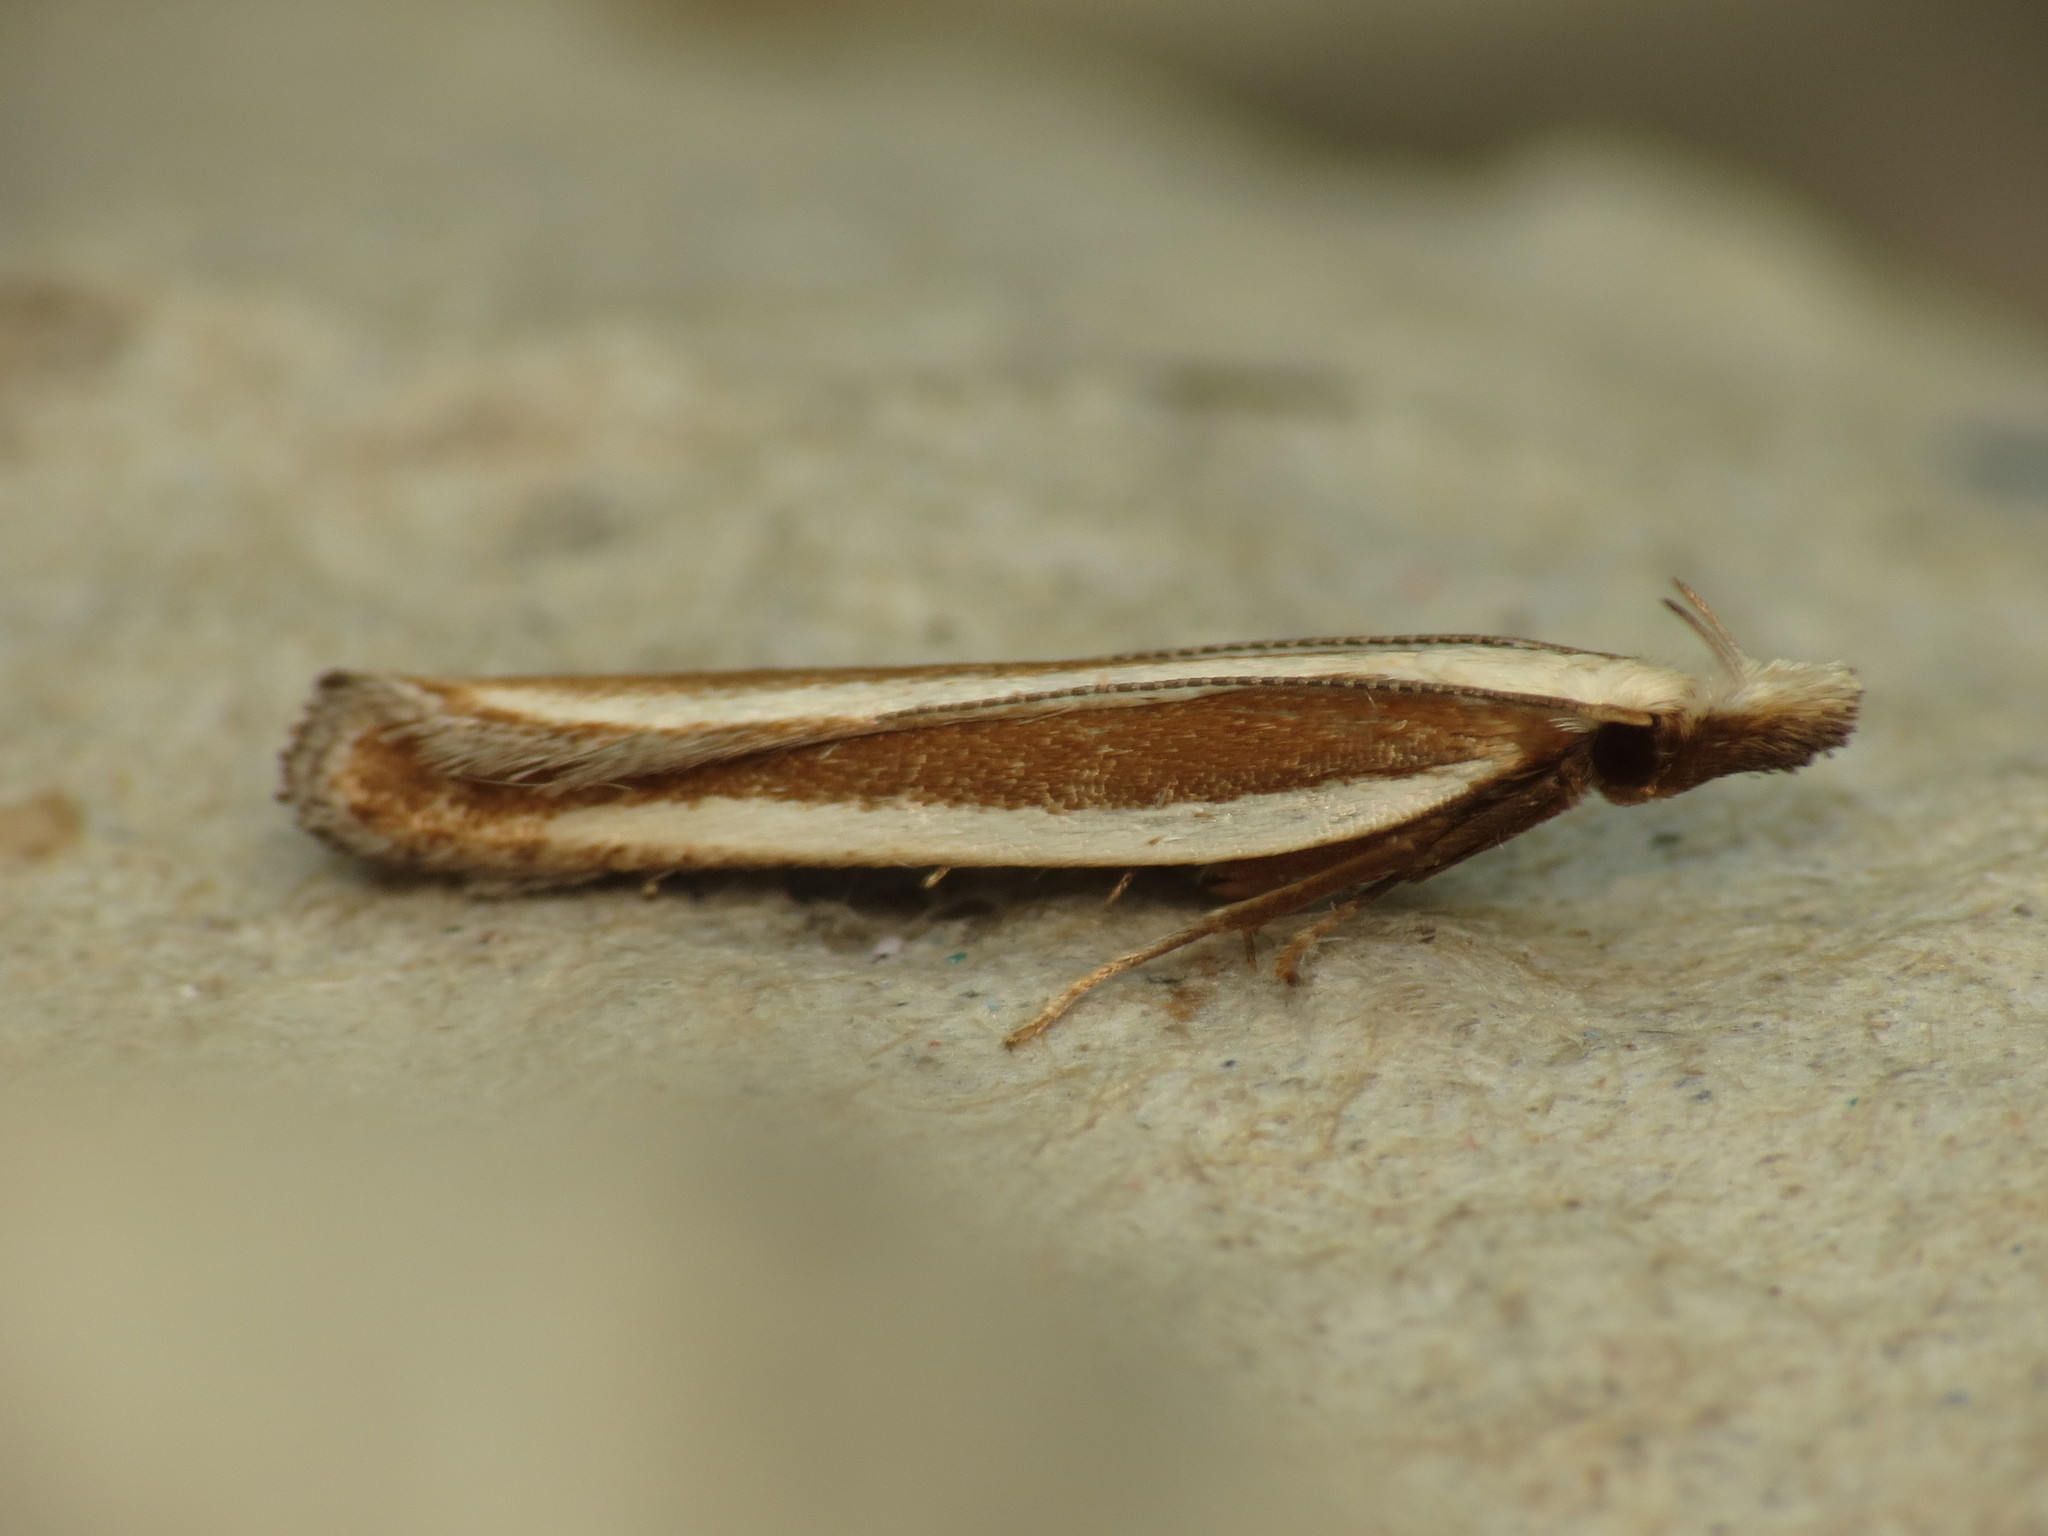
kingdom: Animalia
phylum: Arthropoda
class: Insecta
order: Lepidoptera
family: Gelechiidae
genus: Dichomeris
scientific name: Dichomeris marginella
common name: Juniper webworm
